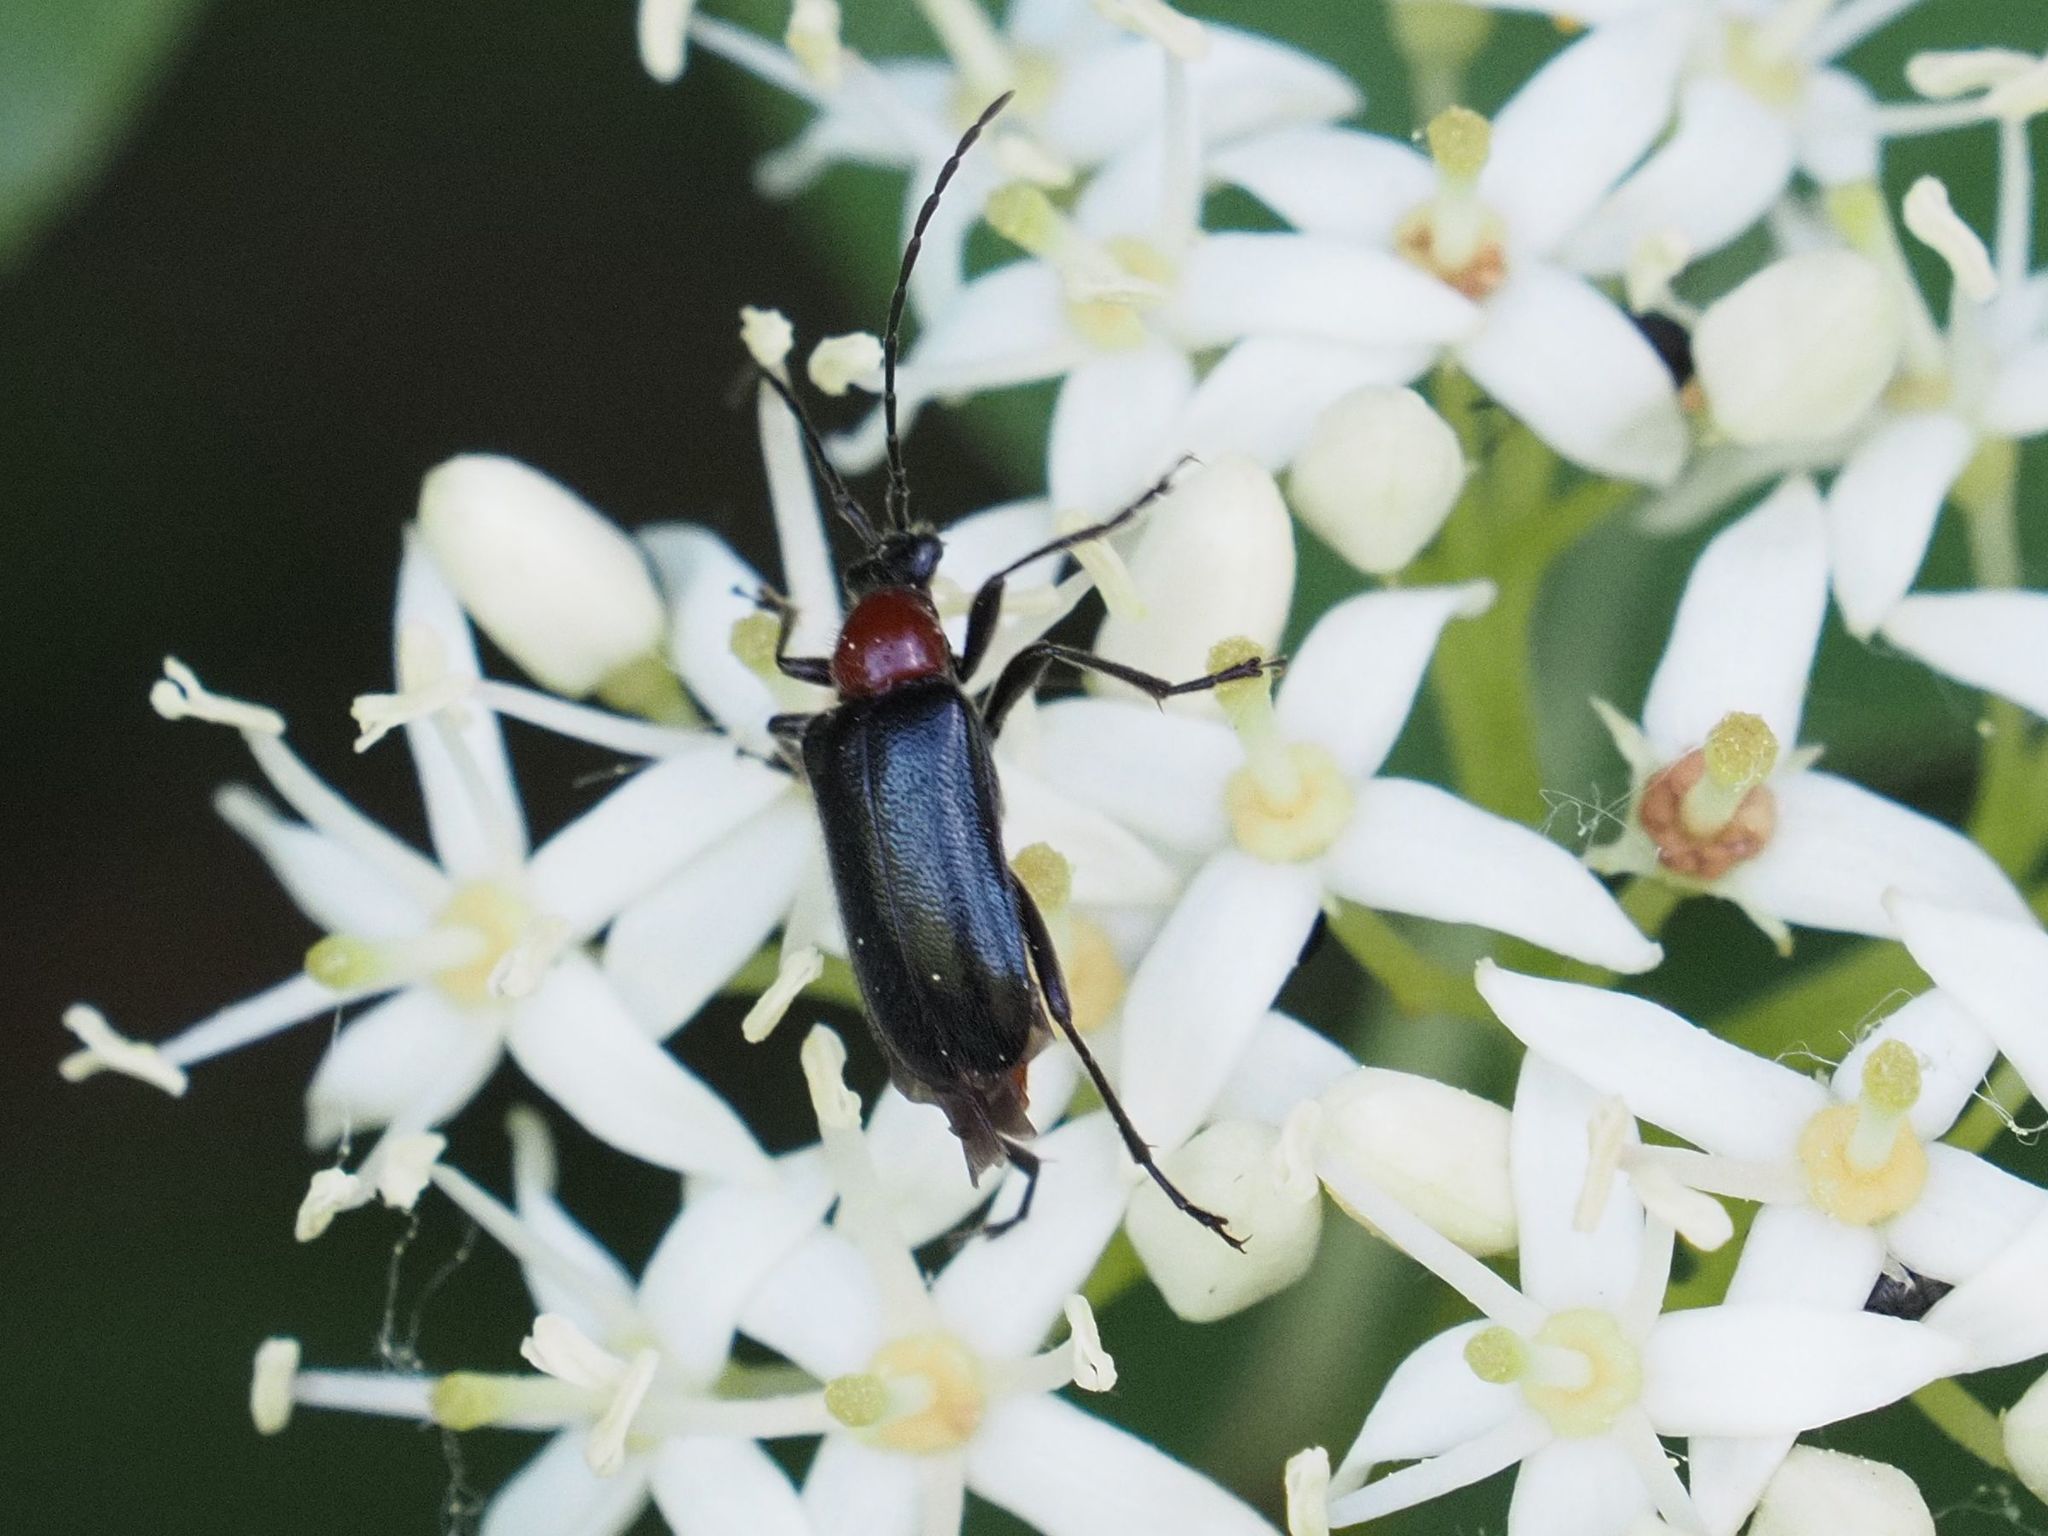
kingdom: Animalia
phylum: Arthropoda
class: Insecta
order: Coleoptera
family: Cerambycidae
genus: Dinoptera
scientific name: Dinoptera collaris
